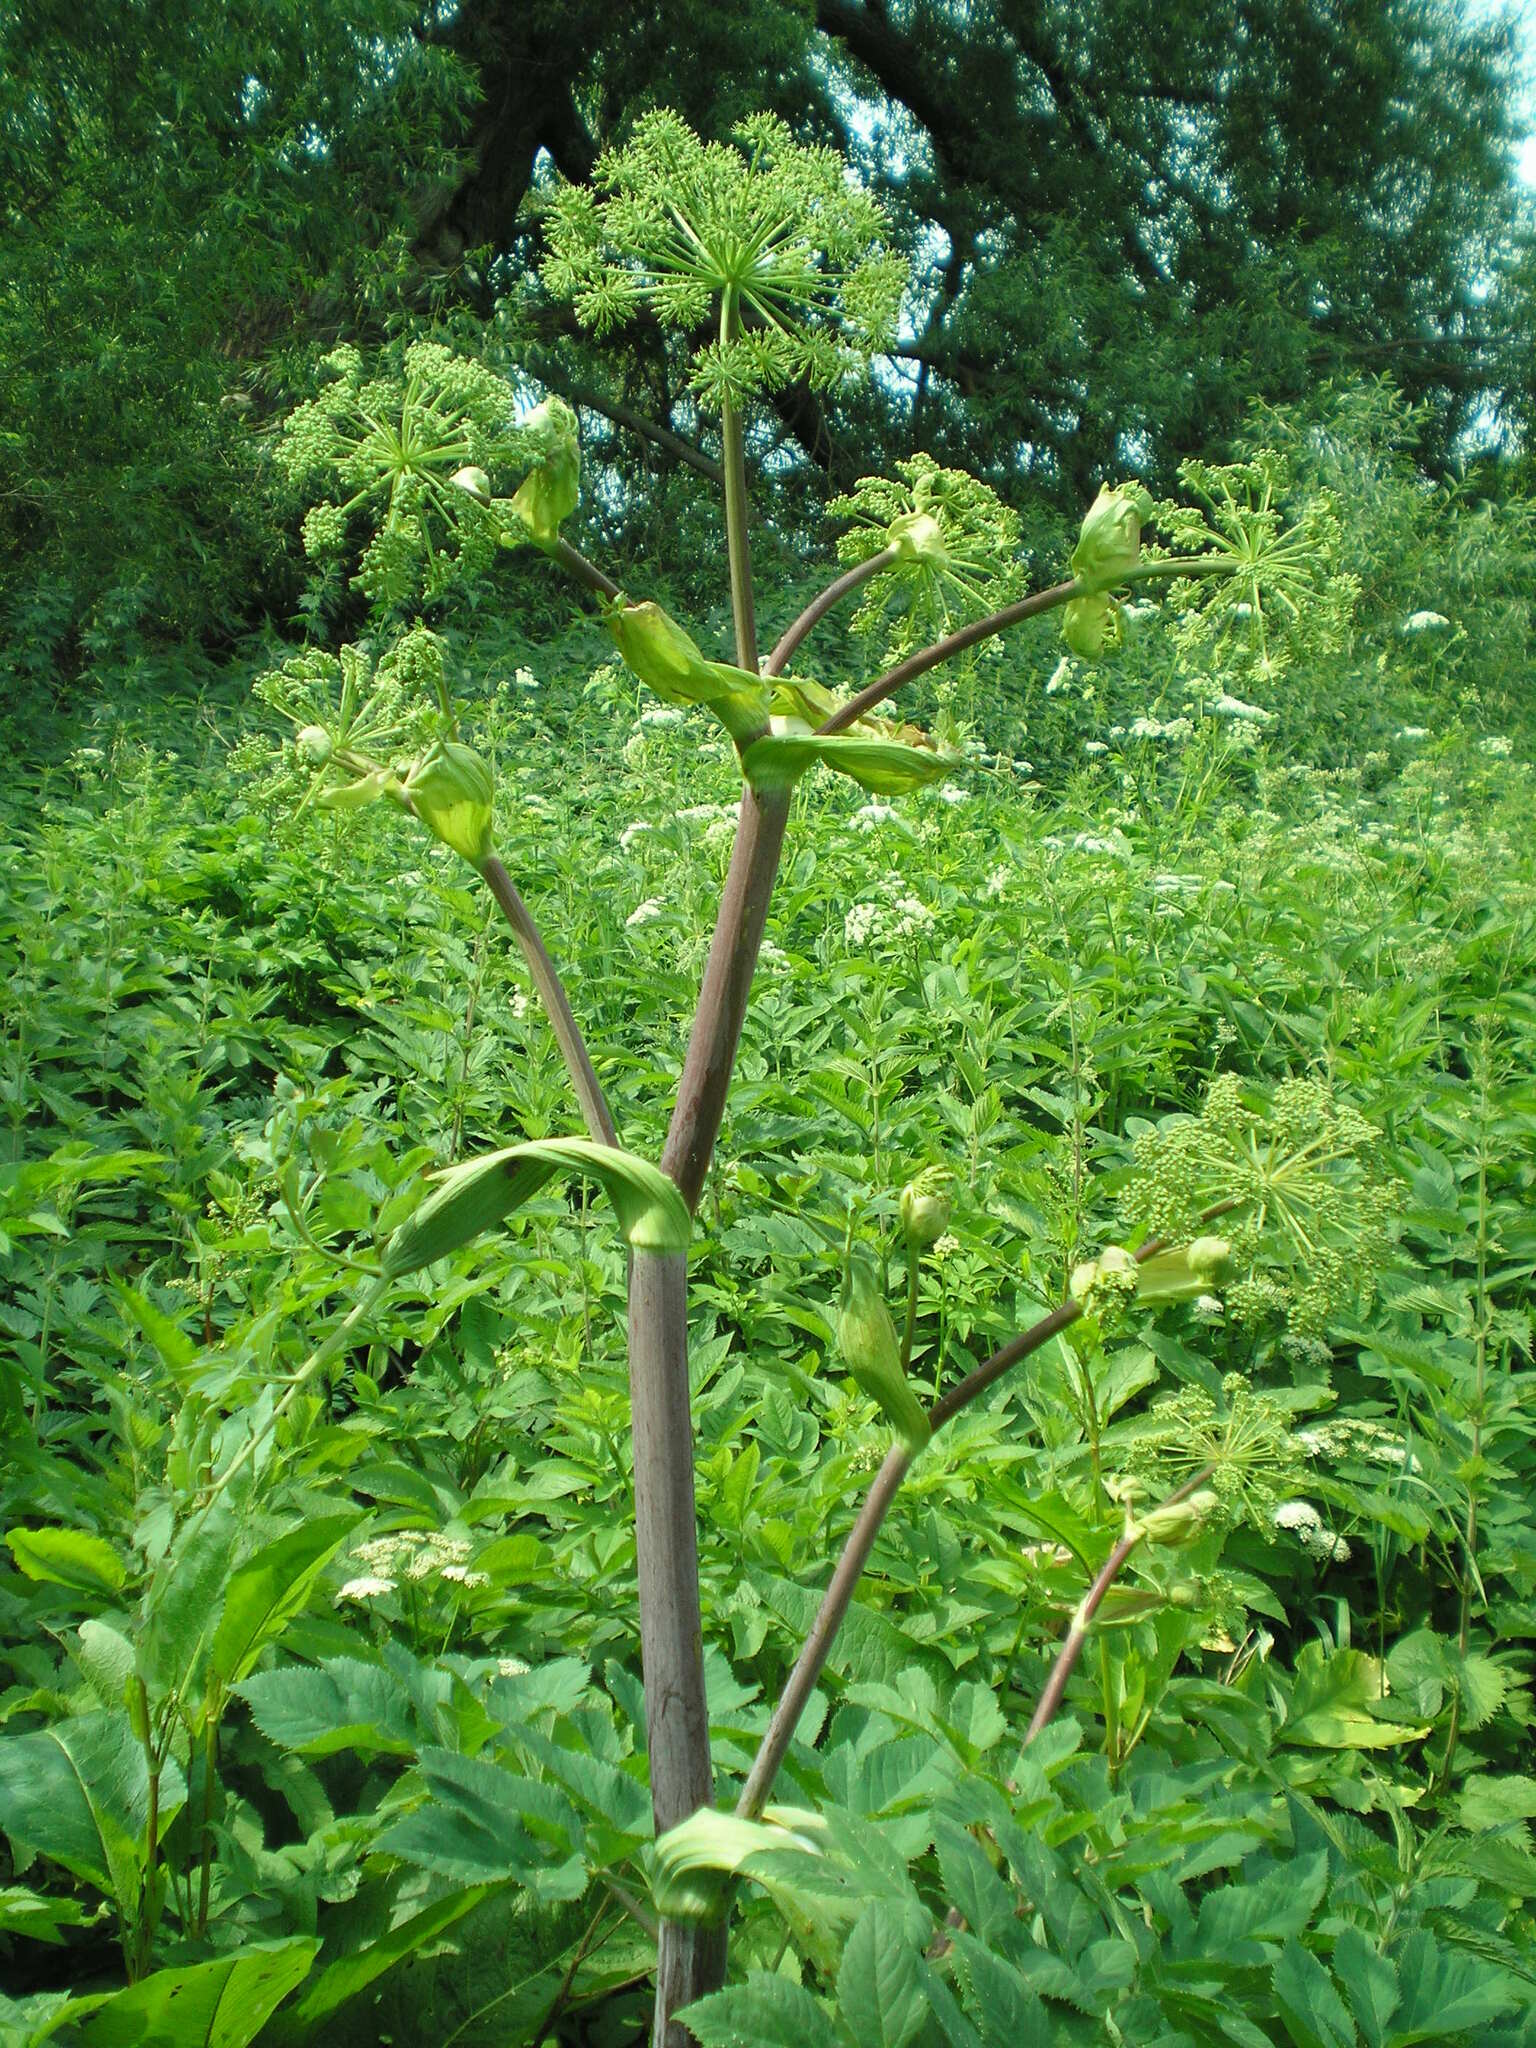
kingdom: Plantae
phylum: Tracheophyta
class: Magnoliopsida
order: Apiales
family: Apiaceae
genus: Angelica
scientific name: Angelica archangelica
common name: Garden angelica
